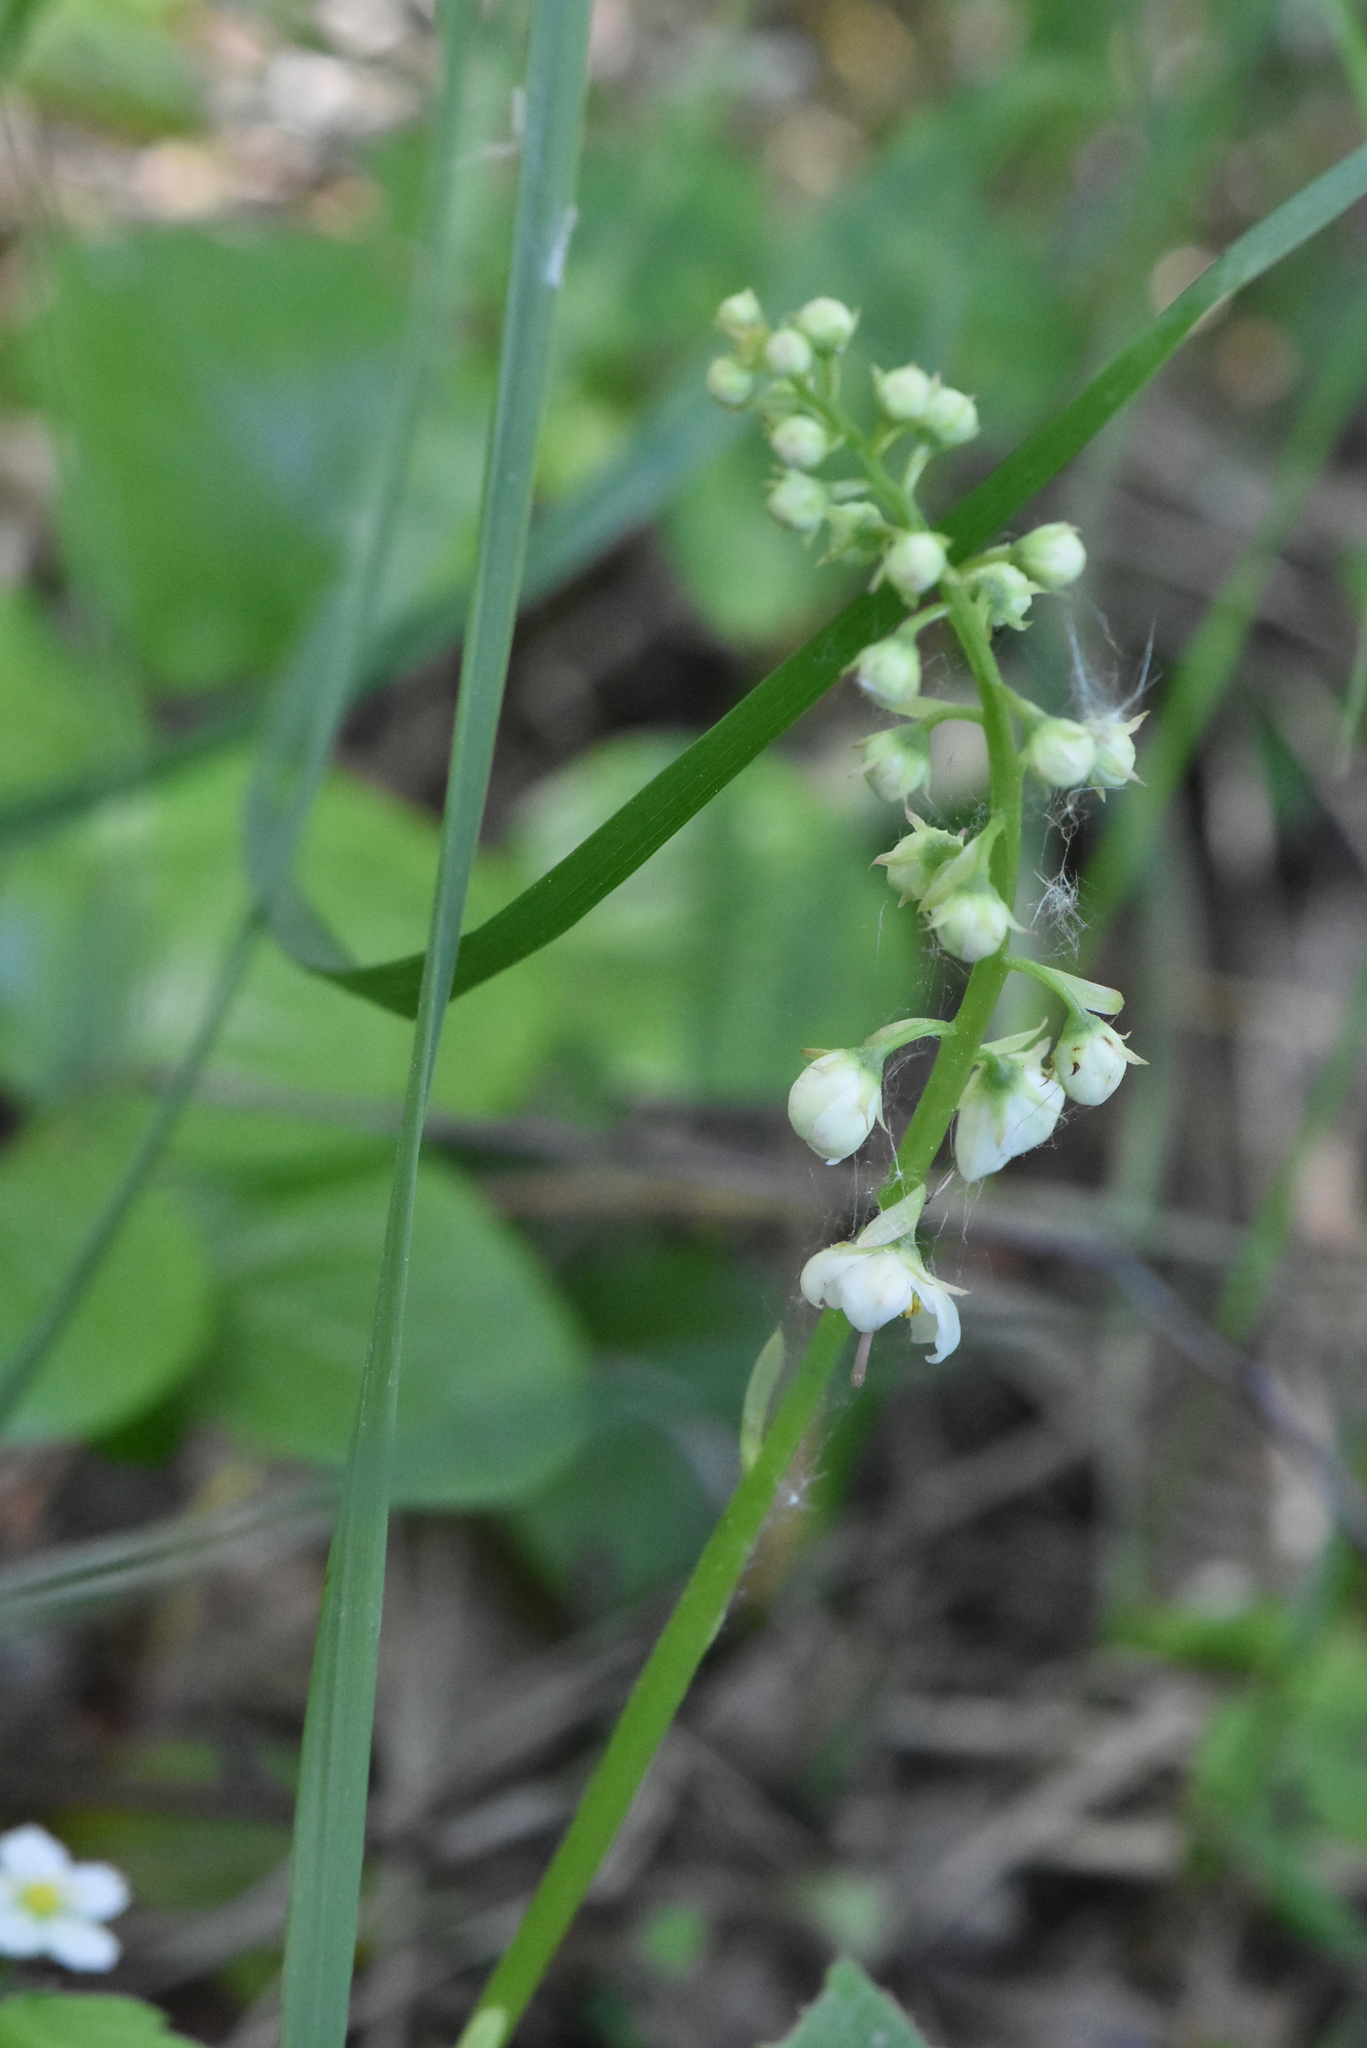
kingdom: Plantae
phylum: Tracheophyta
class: Magnoliopsida
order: Ericales
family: Ericaceae
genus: Pyrola
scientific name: Pyrola rotundifolia
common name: Round-leaved wintergreen
